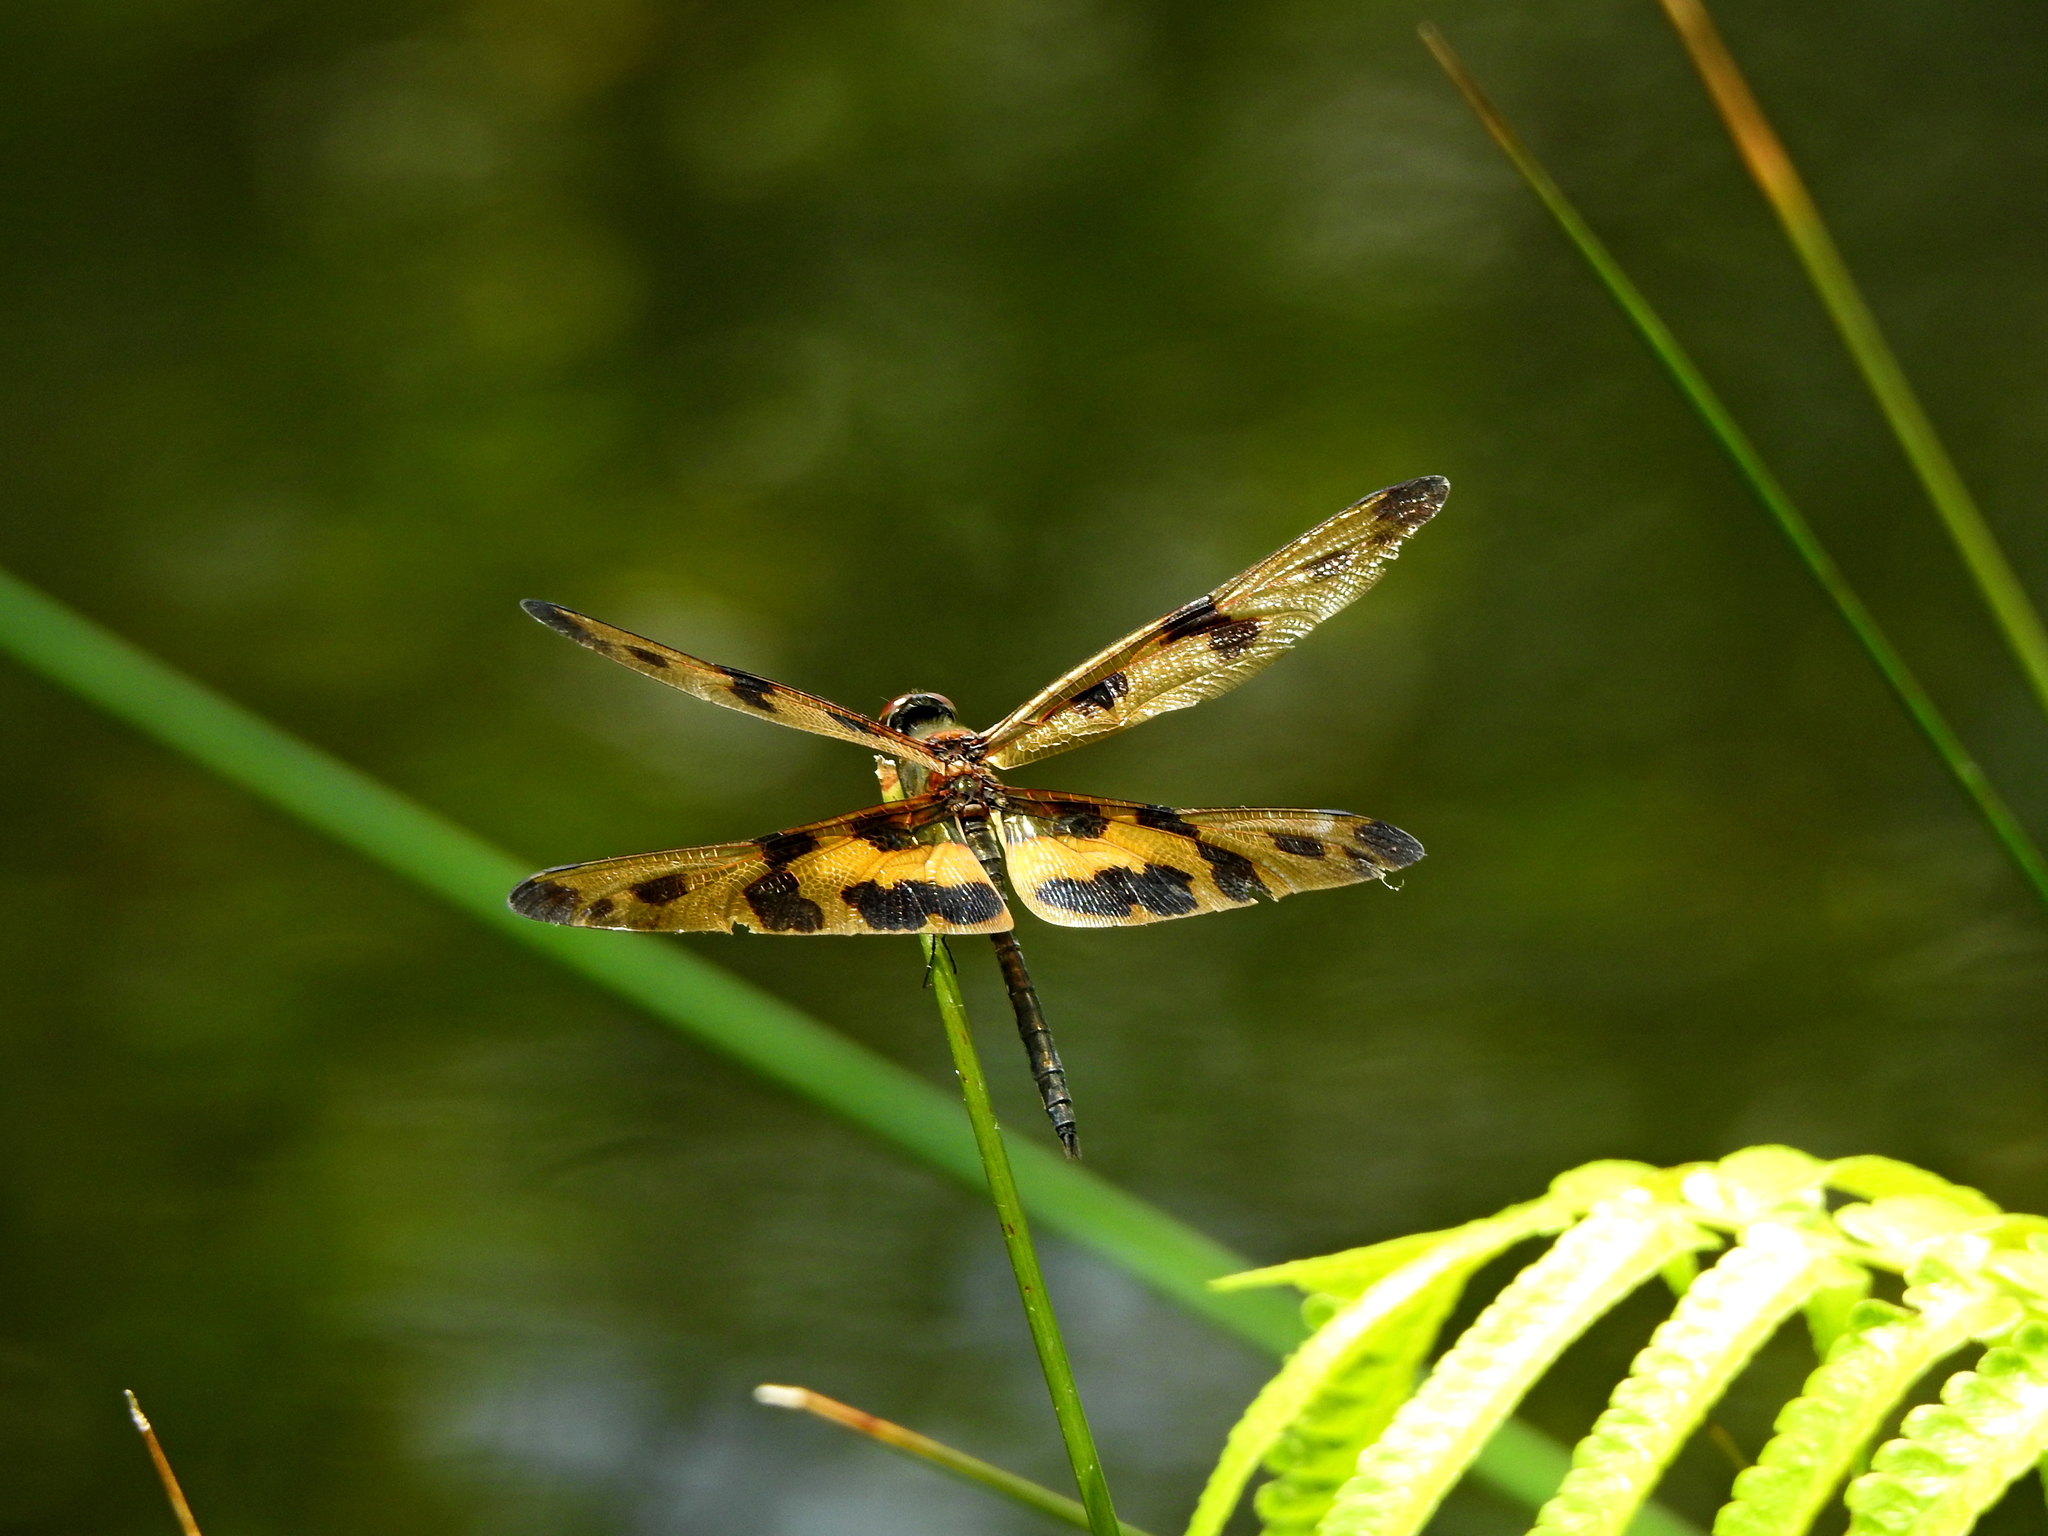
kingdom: Animalia
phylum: Arthropoda
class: Insecta
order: Odonata
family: Libellulidae
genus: Rhyothemis
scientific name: Rhyothemis variegata
